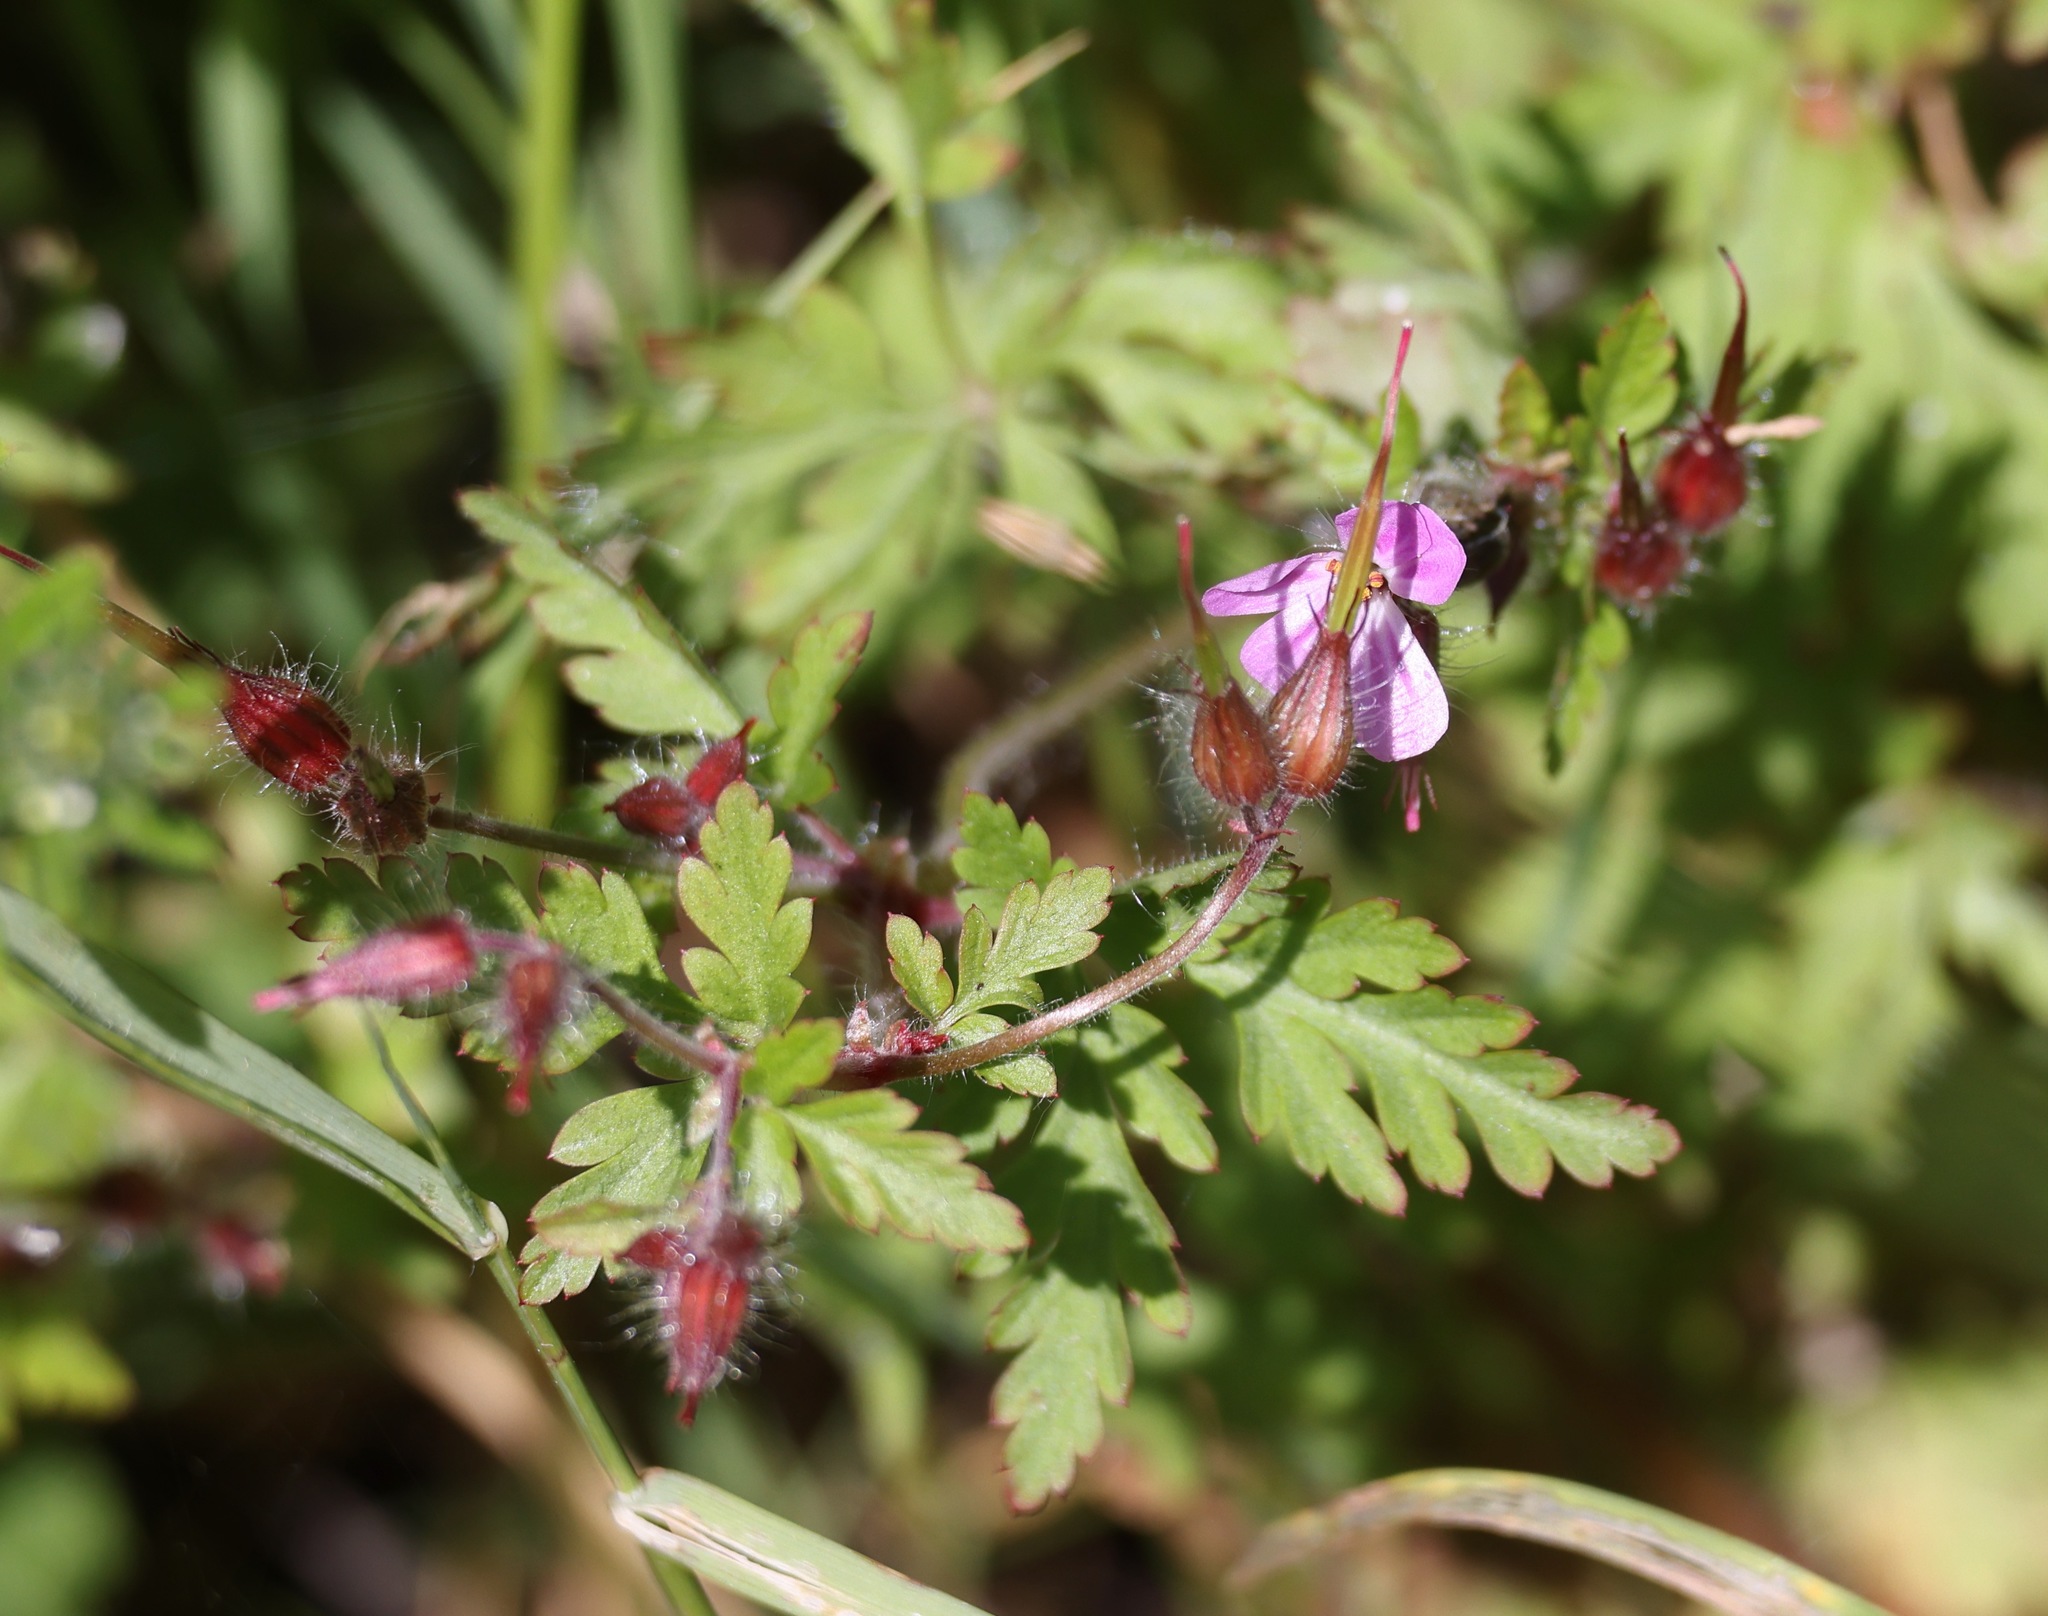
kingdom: Plantae
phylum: Tracheophyta
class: Magnoliopsida
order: Geraniales
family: Geraniaceae
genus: Geranium
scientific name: Geranium robertianum
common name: Herb-robert
